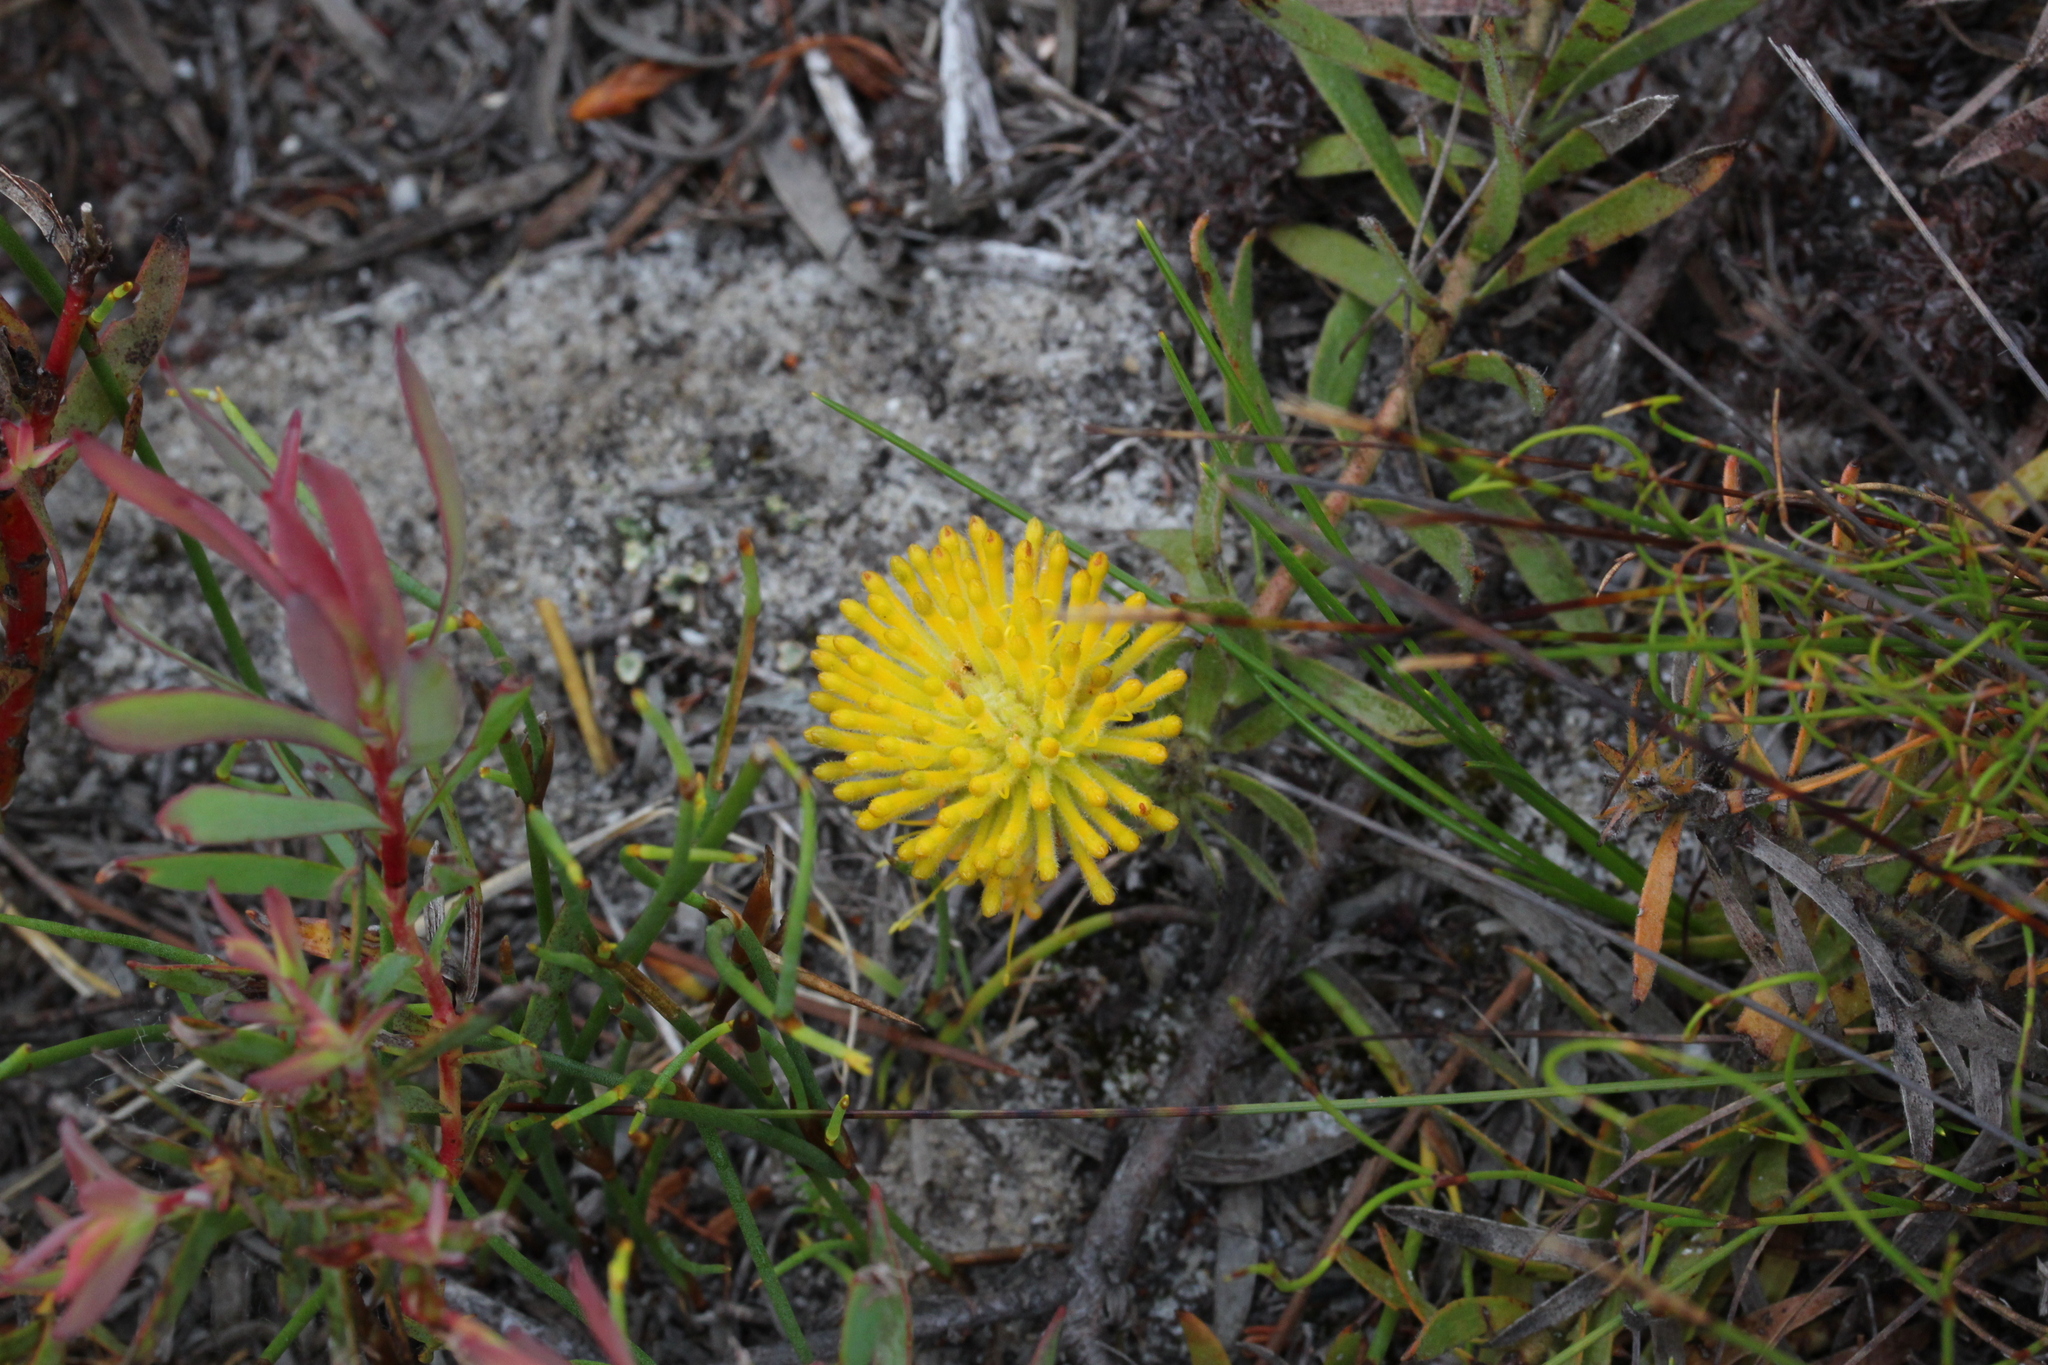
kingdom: Plantae
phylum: Tracheophyta
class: Magnoliopsida
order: Proteales
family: Proteaceae
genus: Leucospermum
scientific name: Leucospermum prostratum
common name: Yellow-trailing pincushion
